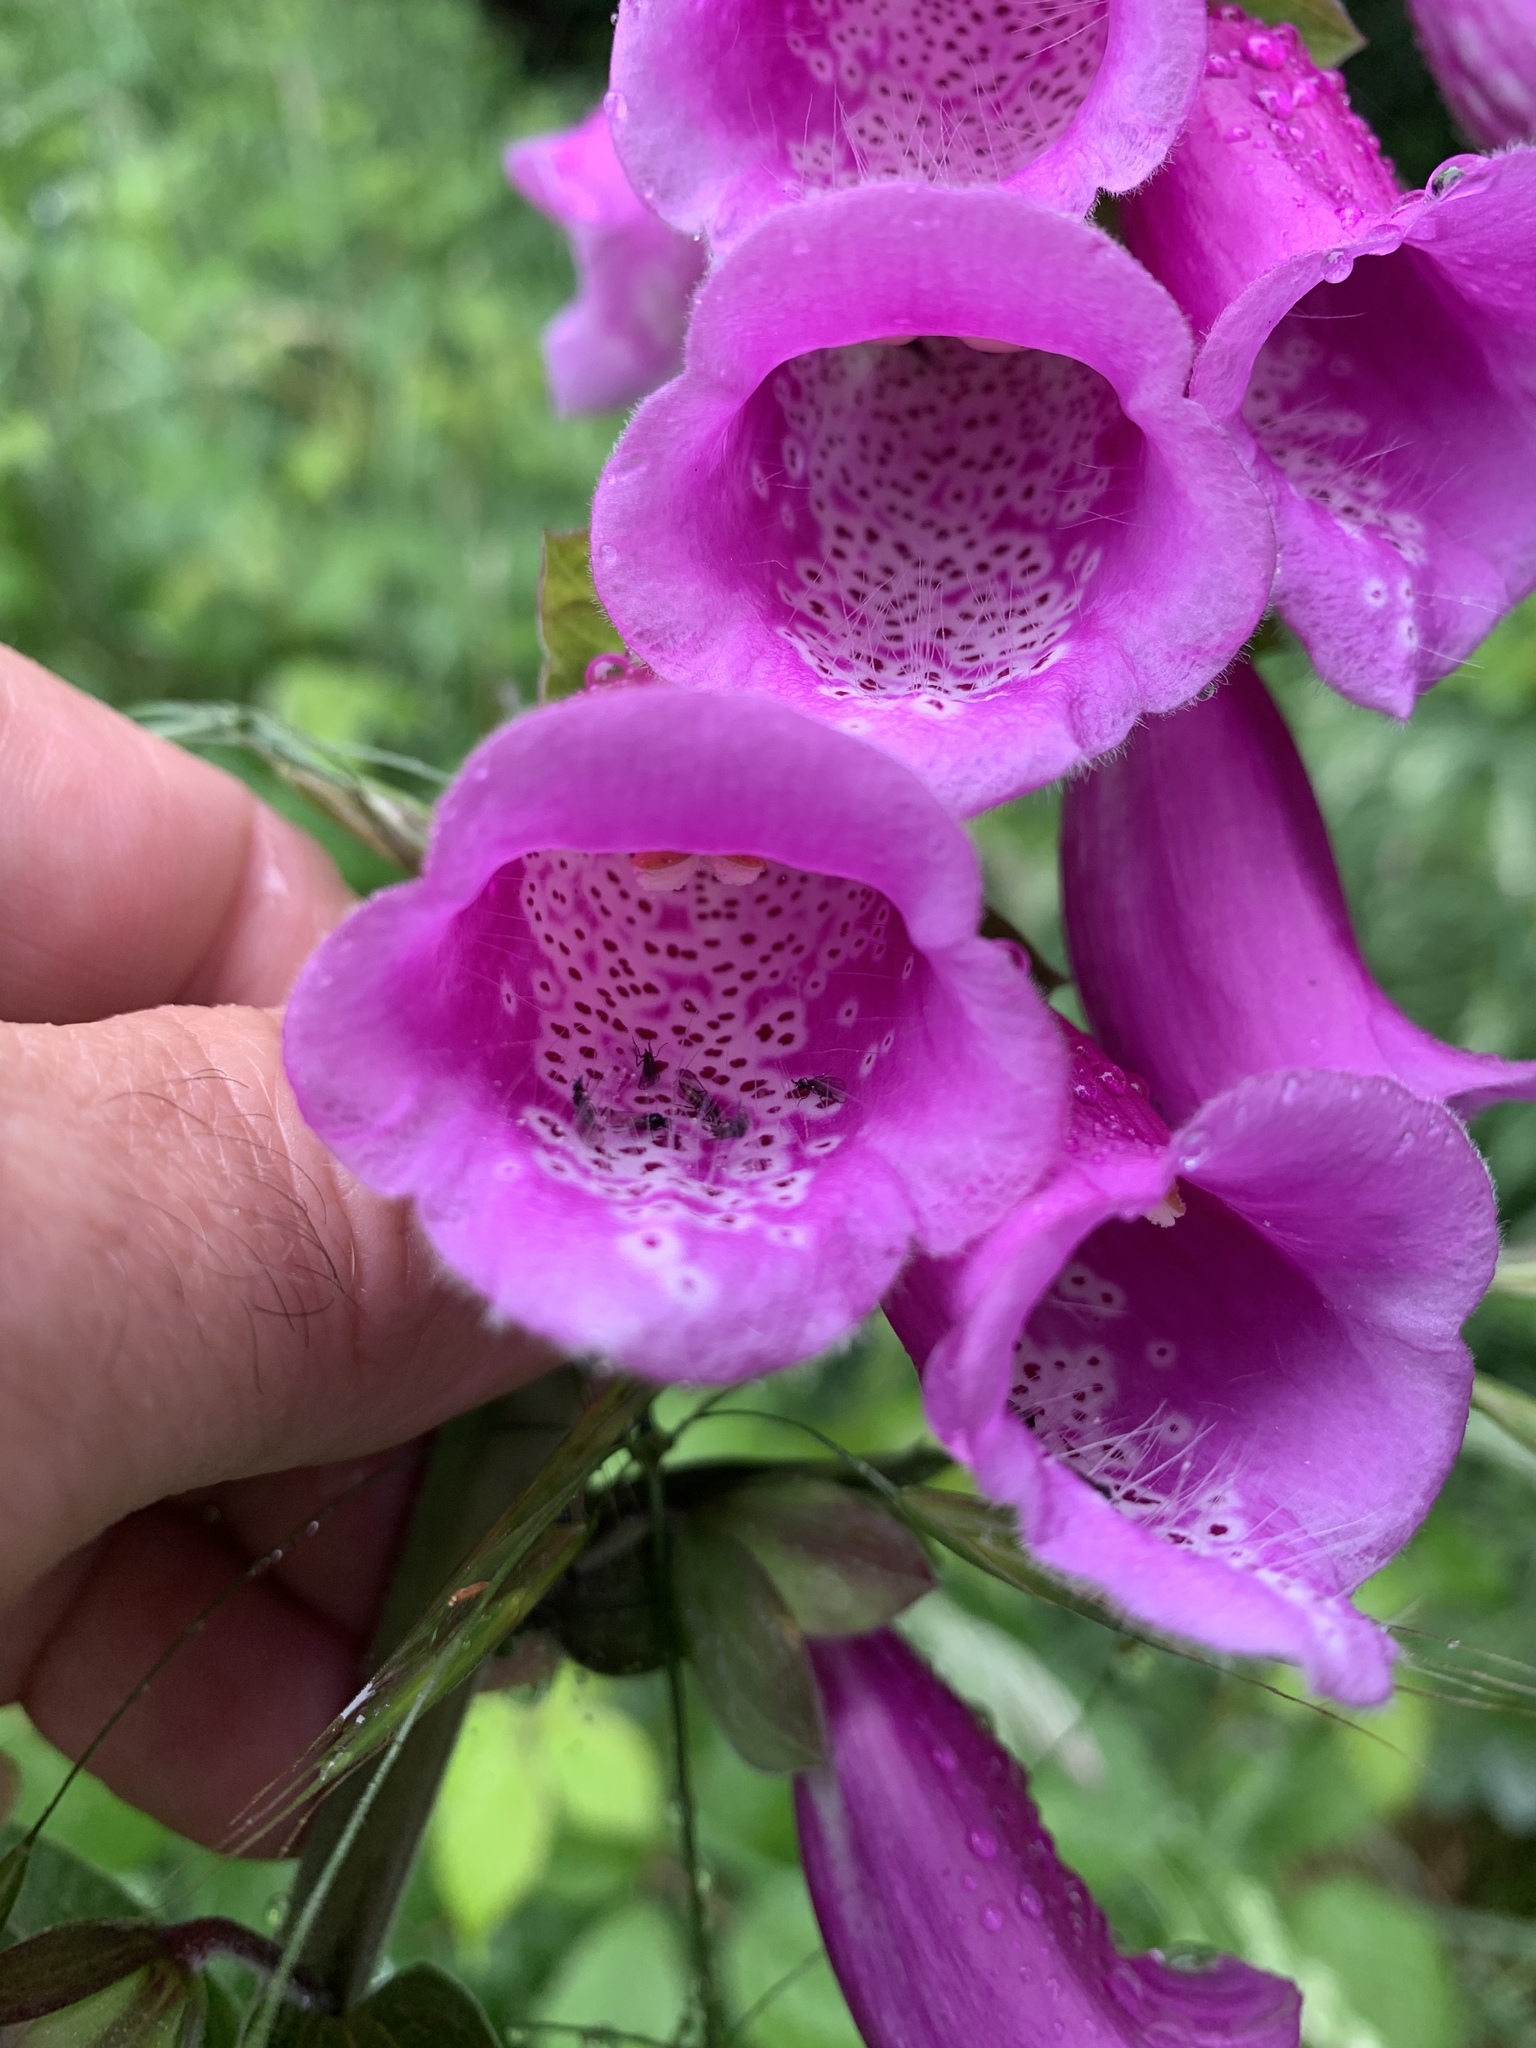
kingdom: Plantae
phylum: Tracheophyta
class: Magnoliopsida
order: Lamiales
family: Plantaginaceae
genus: Digitalis
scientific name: Digitalis purpurea
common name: Foxglove
